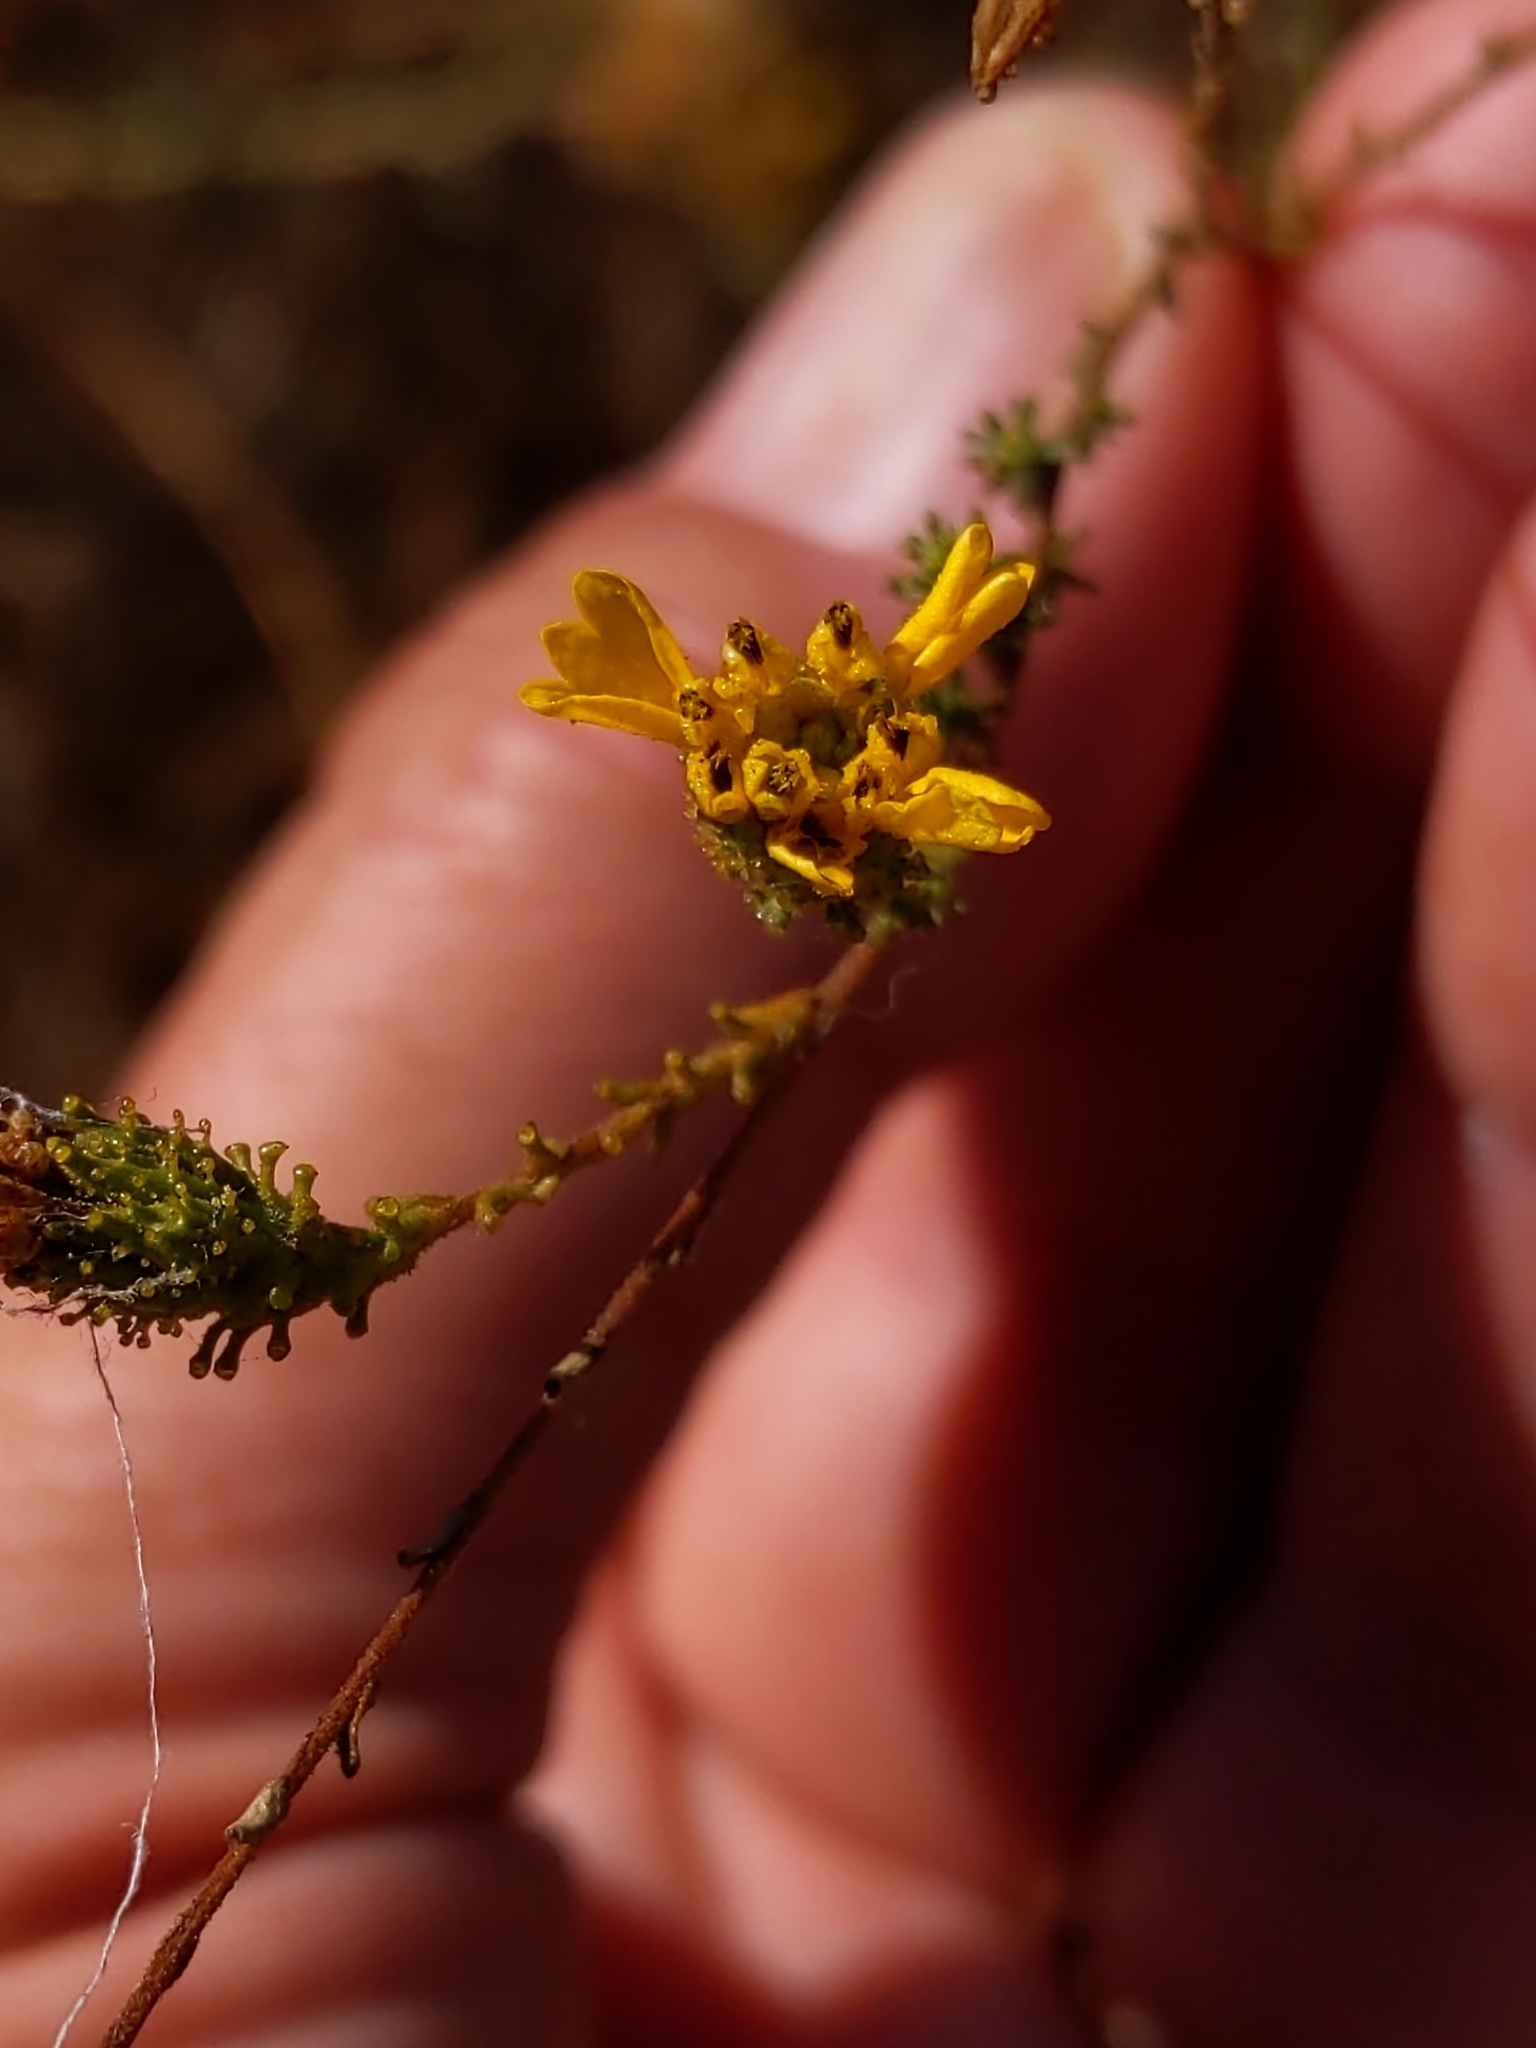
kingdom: Plantae
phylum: Tracheophyta
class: Magnoliopsida
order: Asterales
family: Asteraceae
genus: Holocarpha
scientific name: Holocarpha virgata
